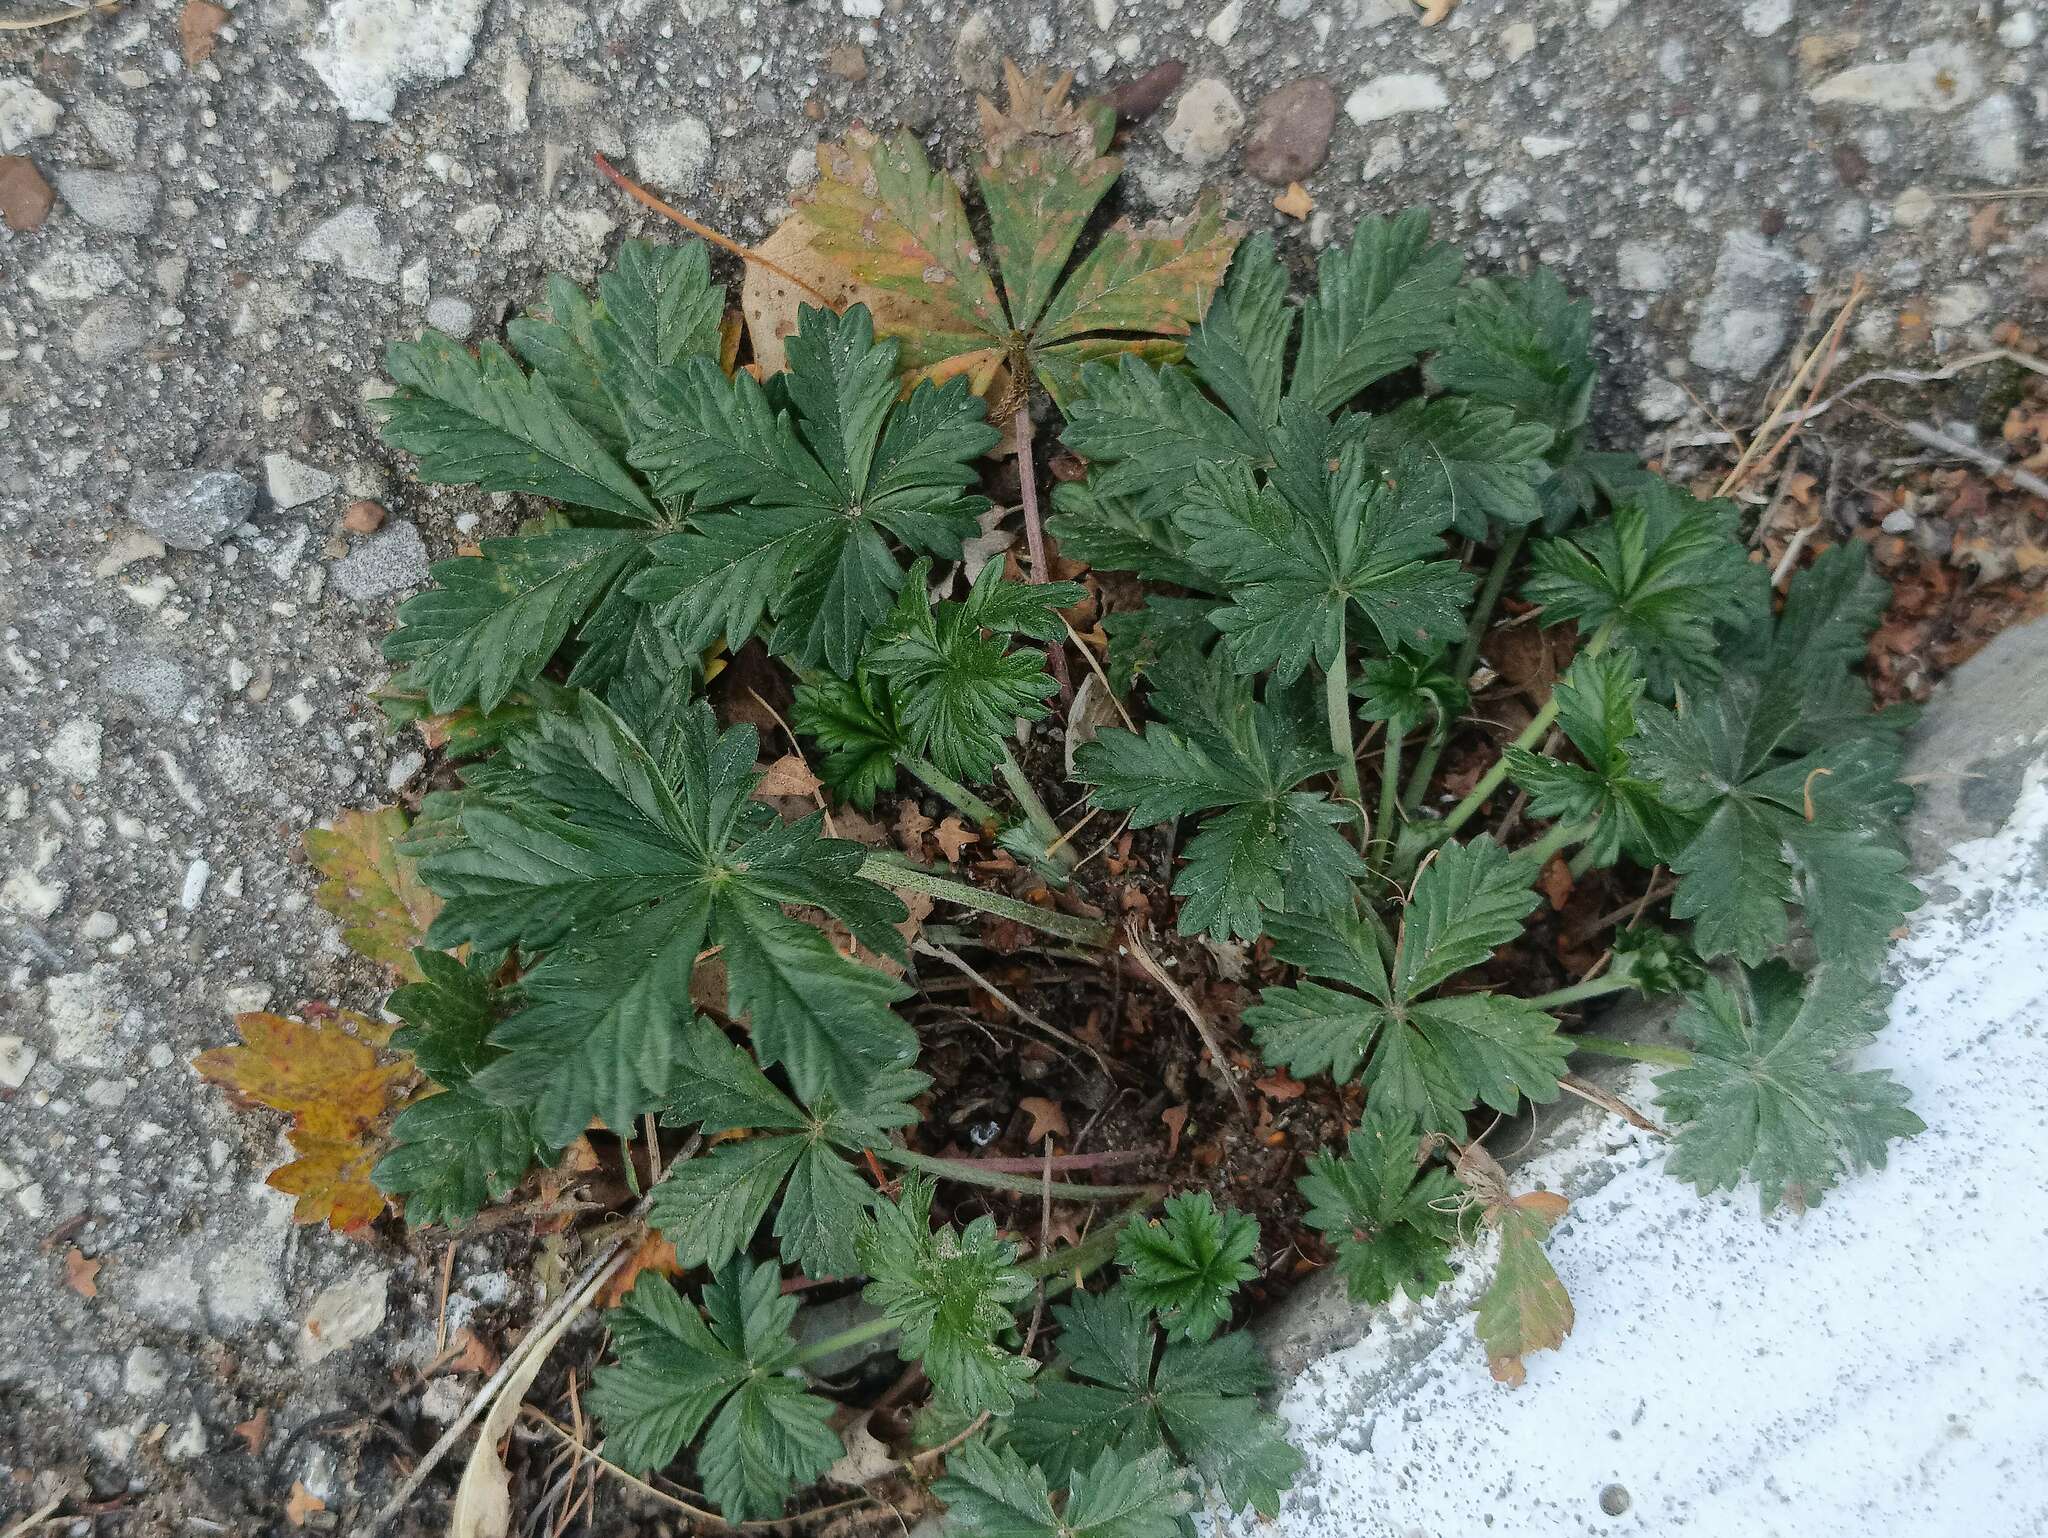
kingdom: Plantae
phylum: Tracheophyta
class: Magnoliopsida
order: Rosales
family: Rosaceae
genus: Potentilla
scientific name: Potentilla intermedia
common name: Downy cinquefoil
